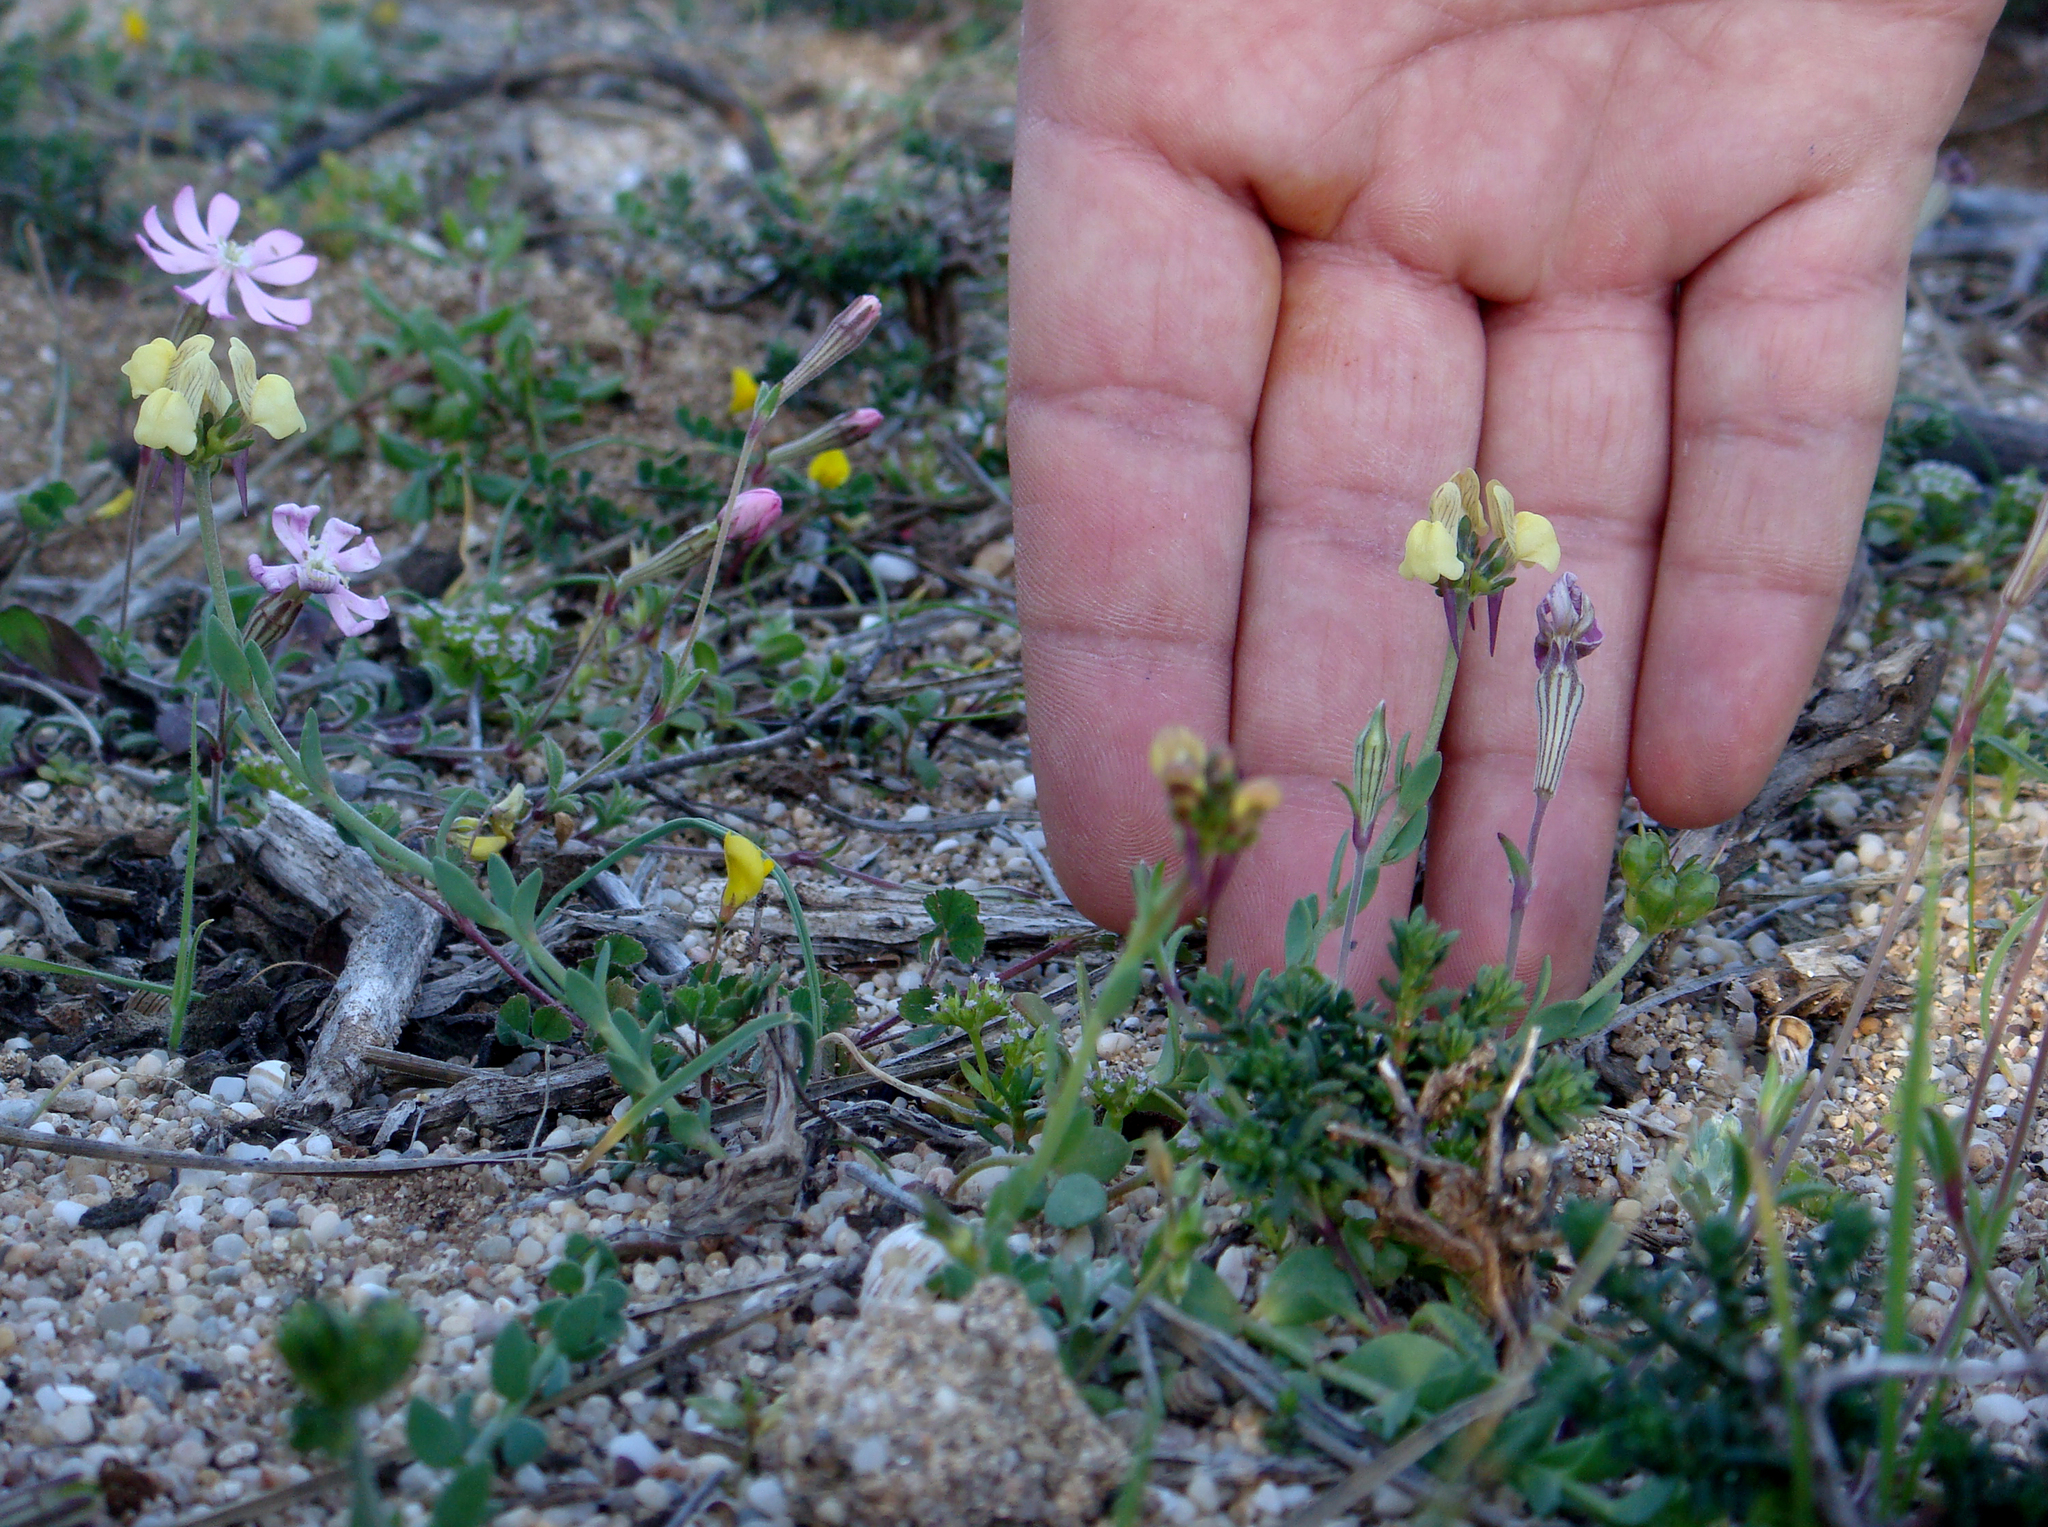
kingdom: Plantae
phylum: Tracheophyta
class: Magnoliopsida
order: Lamiales
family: Plantaginaceae
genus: Linaria
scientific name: Linaria flava
